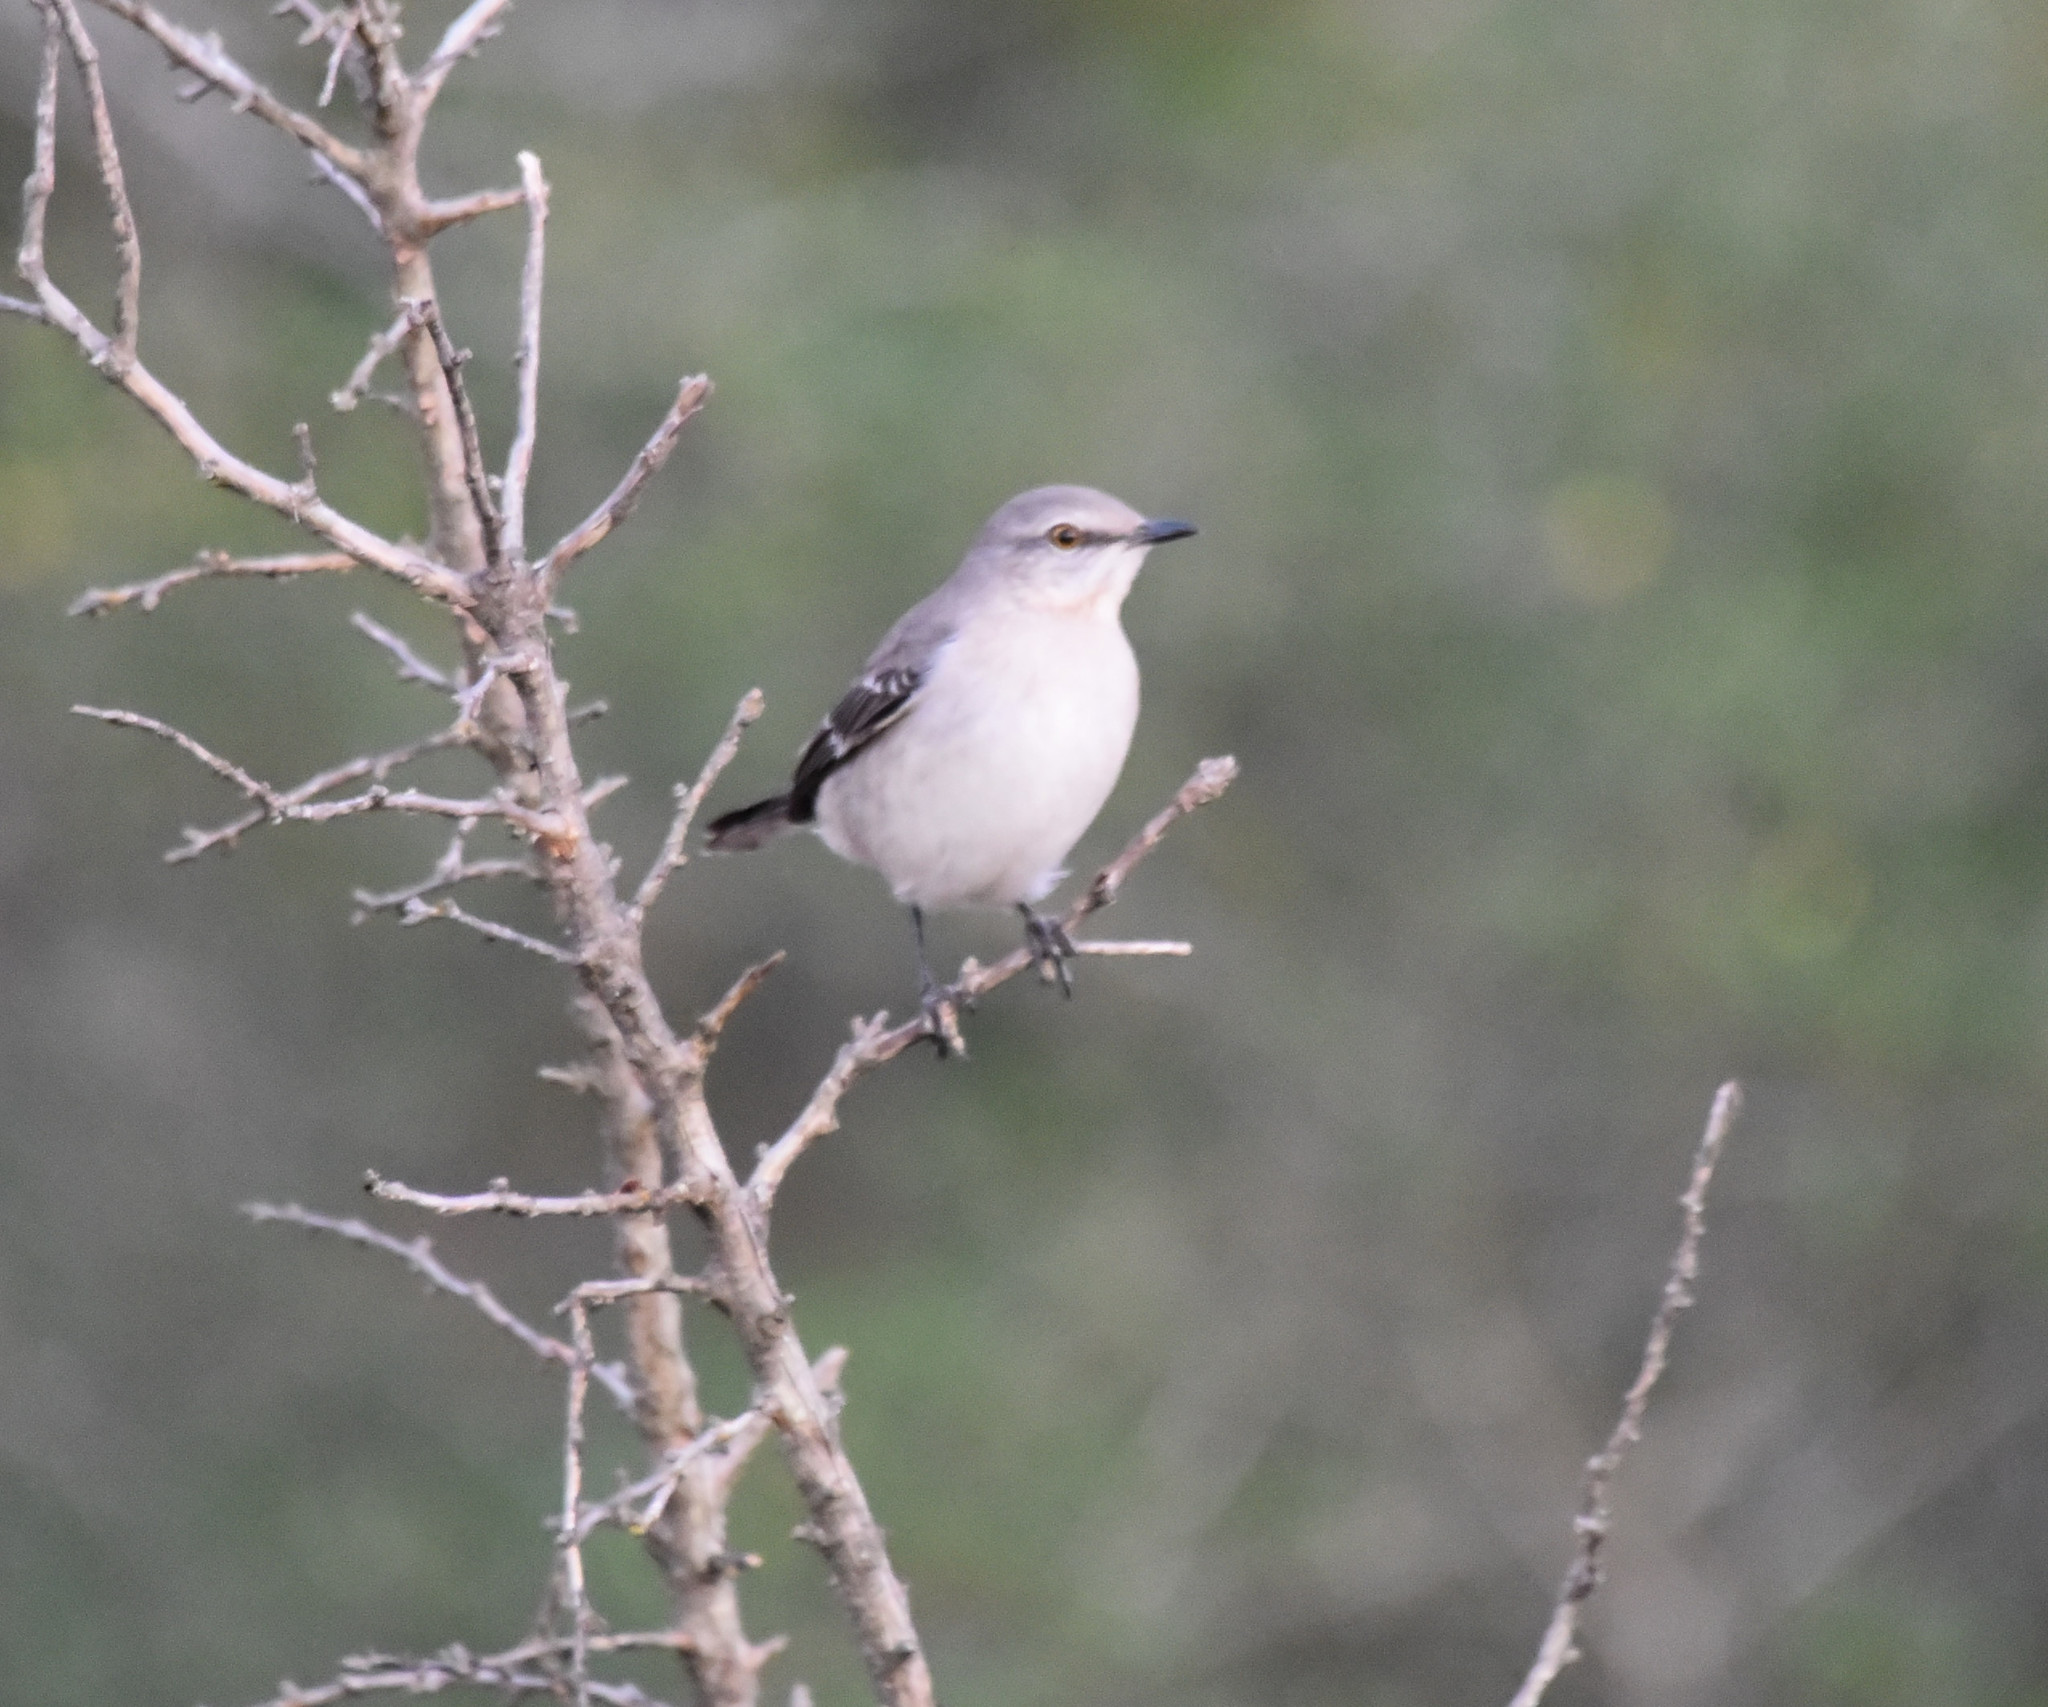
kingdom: Animalia
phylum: Chordata
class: Aves
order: Passeriformes
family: Mimidae
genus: Mimus
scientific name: Mimus polyglottos
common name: Northern mockingbird
